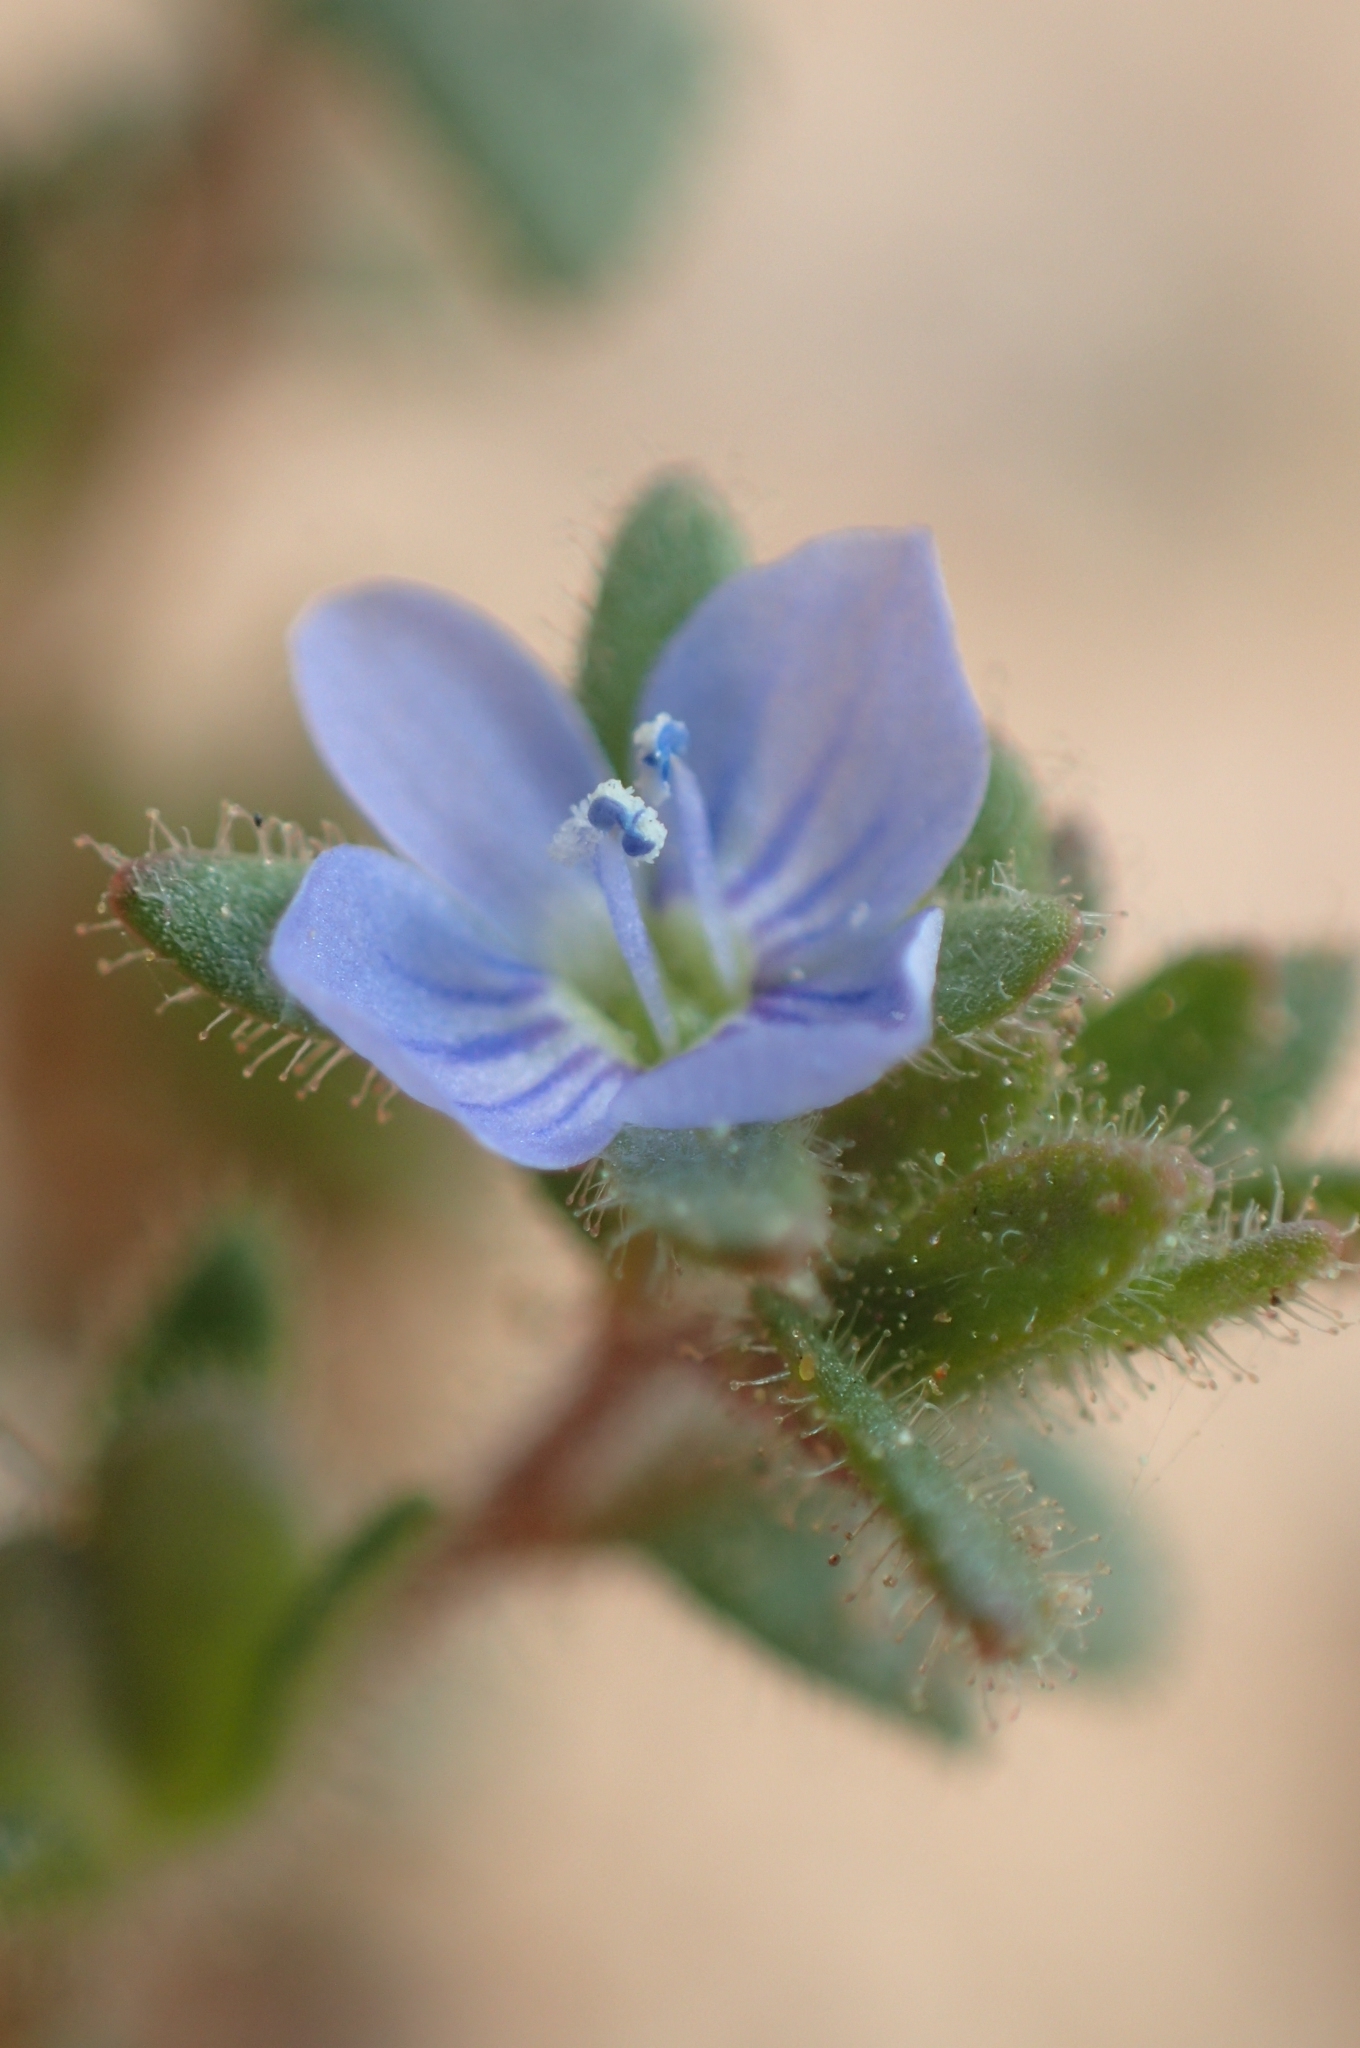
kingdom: Plantae
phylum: Tracheophyta
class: Magnoliopsida
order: Lamiales
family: Plantaginaceae
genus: Veronica
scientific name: Veronica praecox
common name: Breckland speedwell
